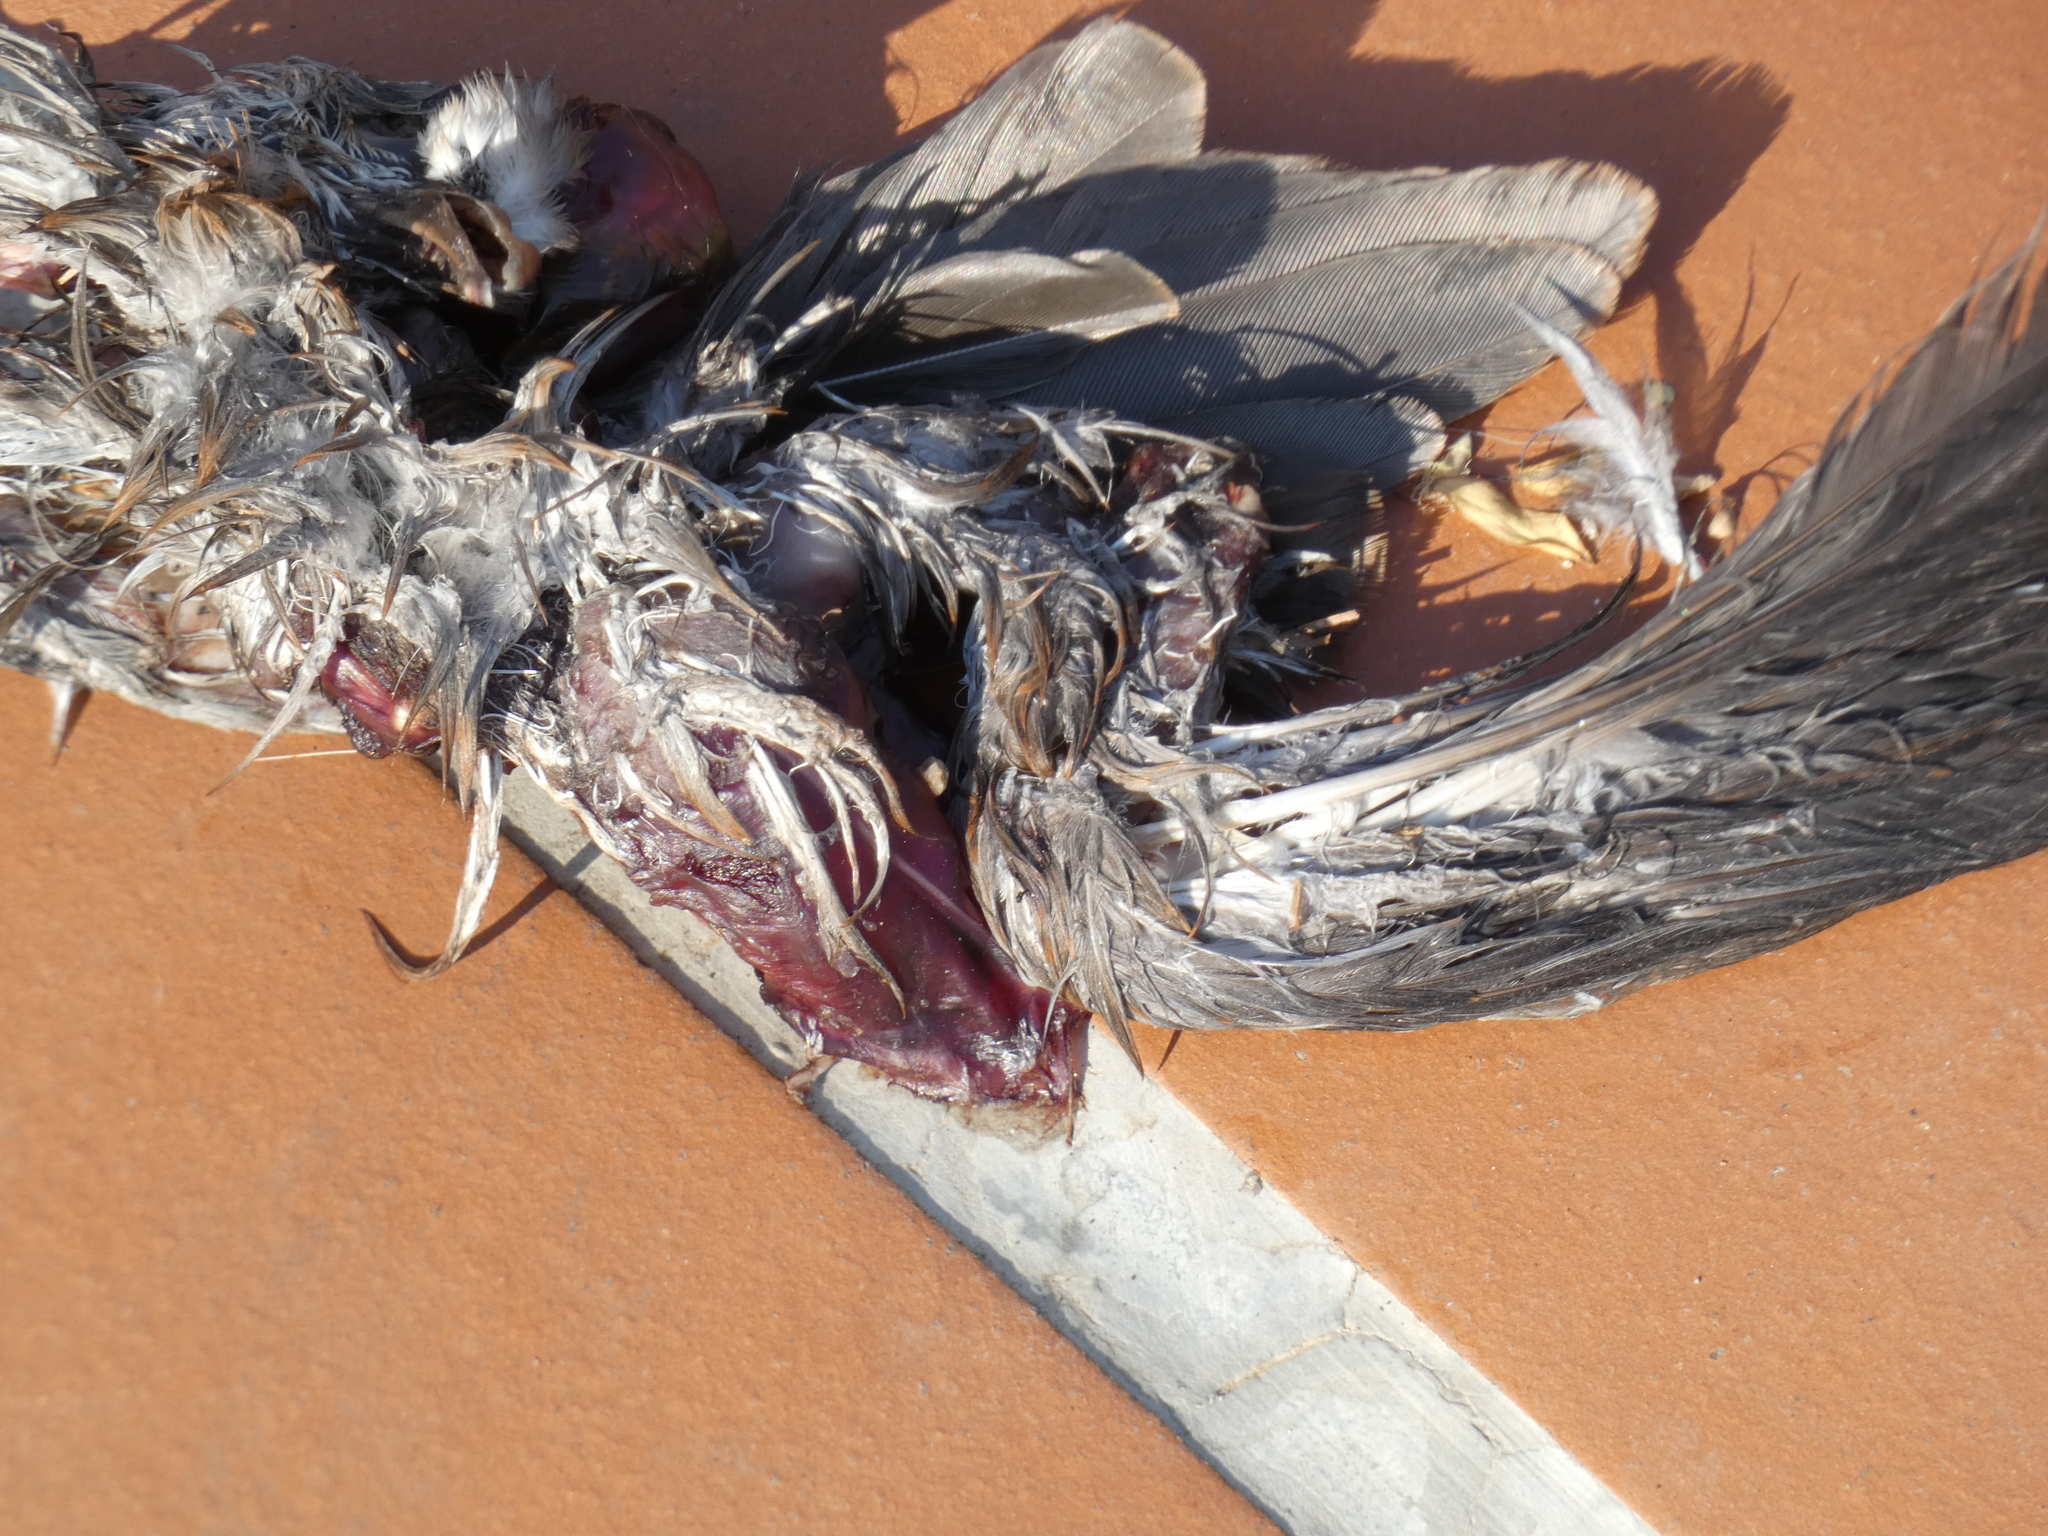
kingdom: Animalia
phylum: Chordata
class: Aves
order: Columbiformes
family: Columbidae
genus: Columba
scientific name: Columba livia
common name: Rock pigeon
